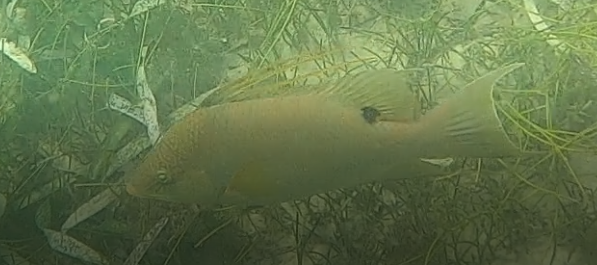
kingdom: Animalia
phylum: Chordata
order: Perciformes
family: Labridae
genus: Lachnolaimus
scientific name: Lachnolaimus maximus
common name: Hogfish
